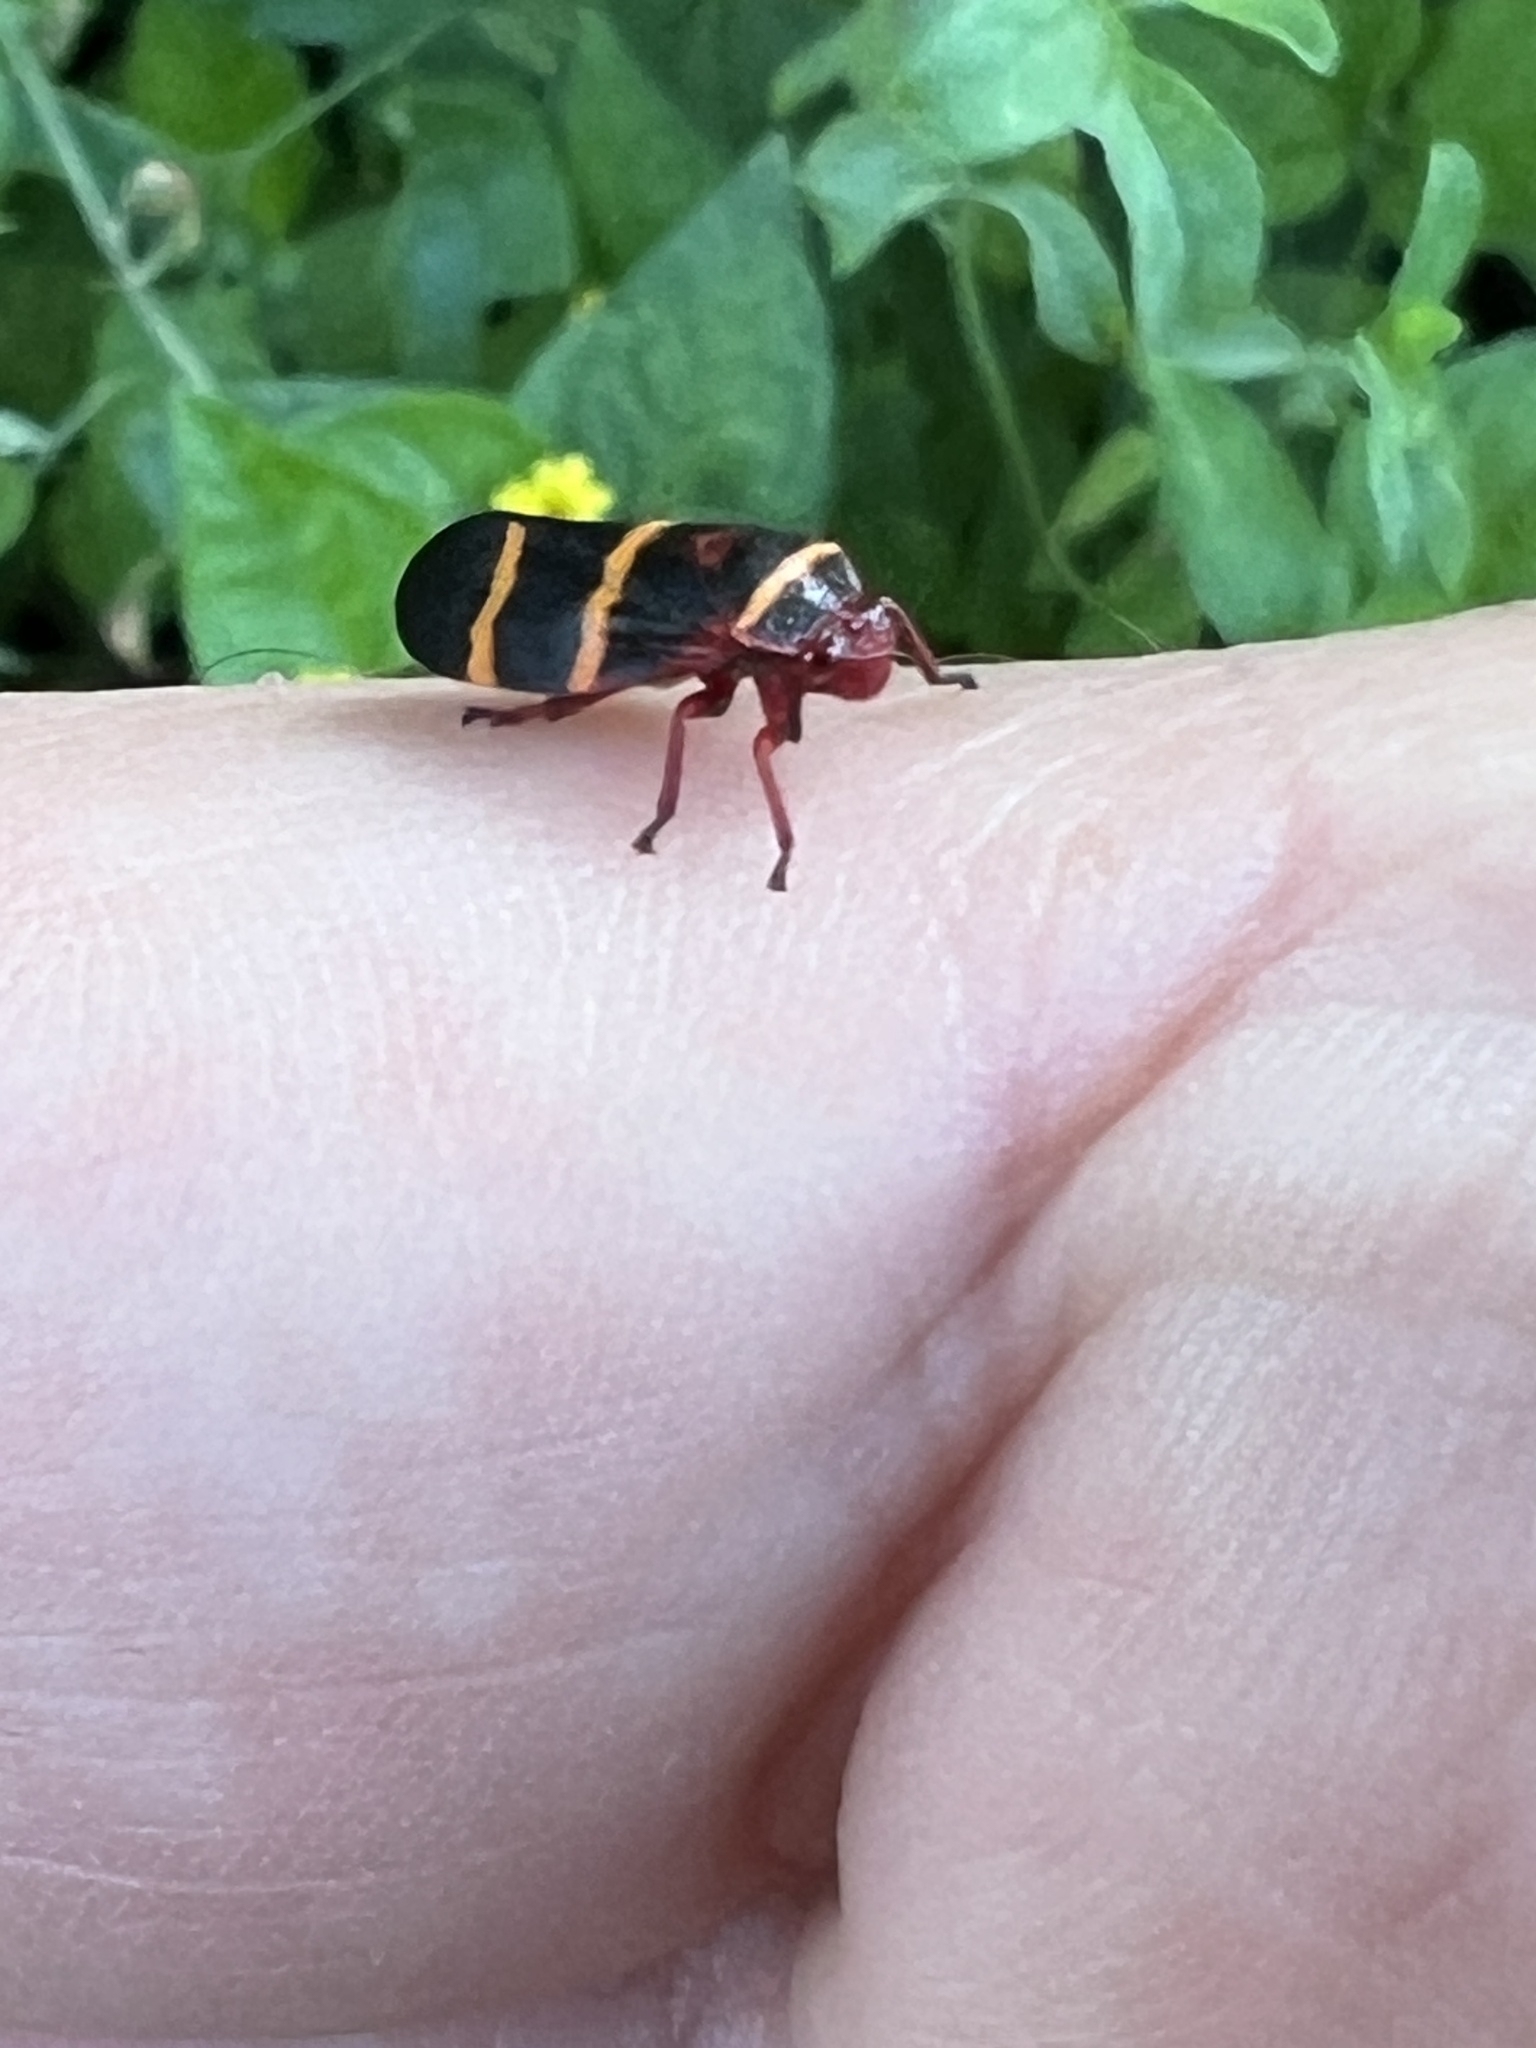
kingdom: Animalia
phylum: Arthropoda
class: Insecta
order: Hemiptera
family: Cercopidae
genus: Prosapia
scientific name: Prosapia bicincta
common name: Twolined spittlebug
